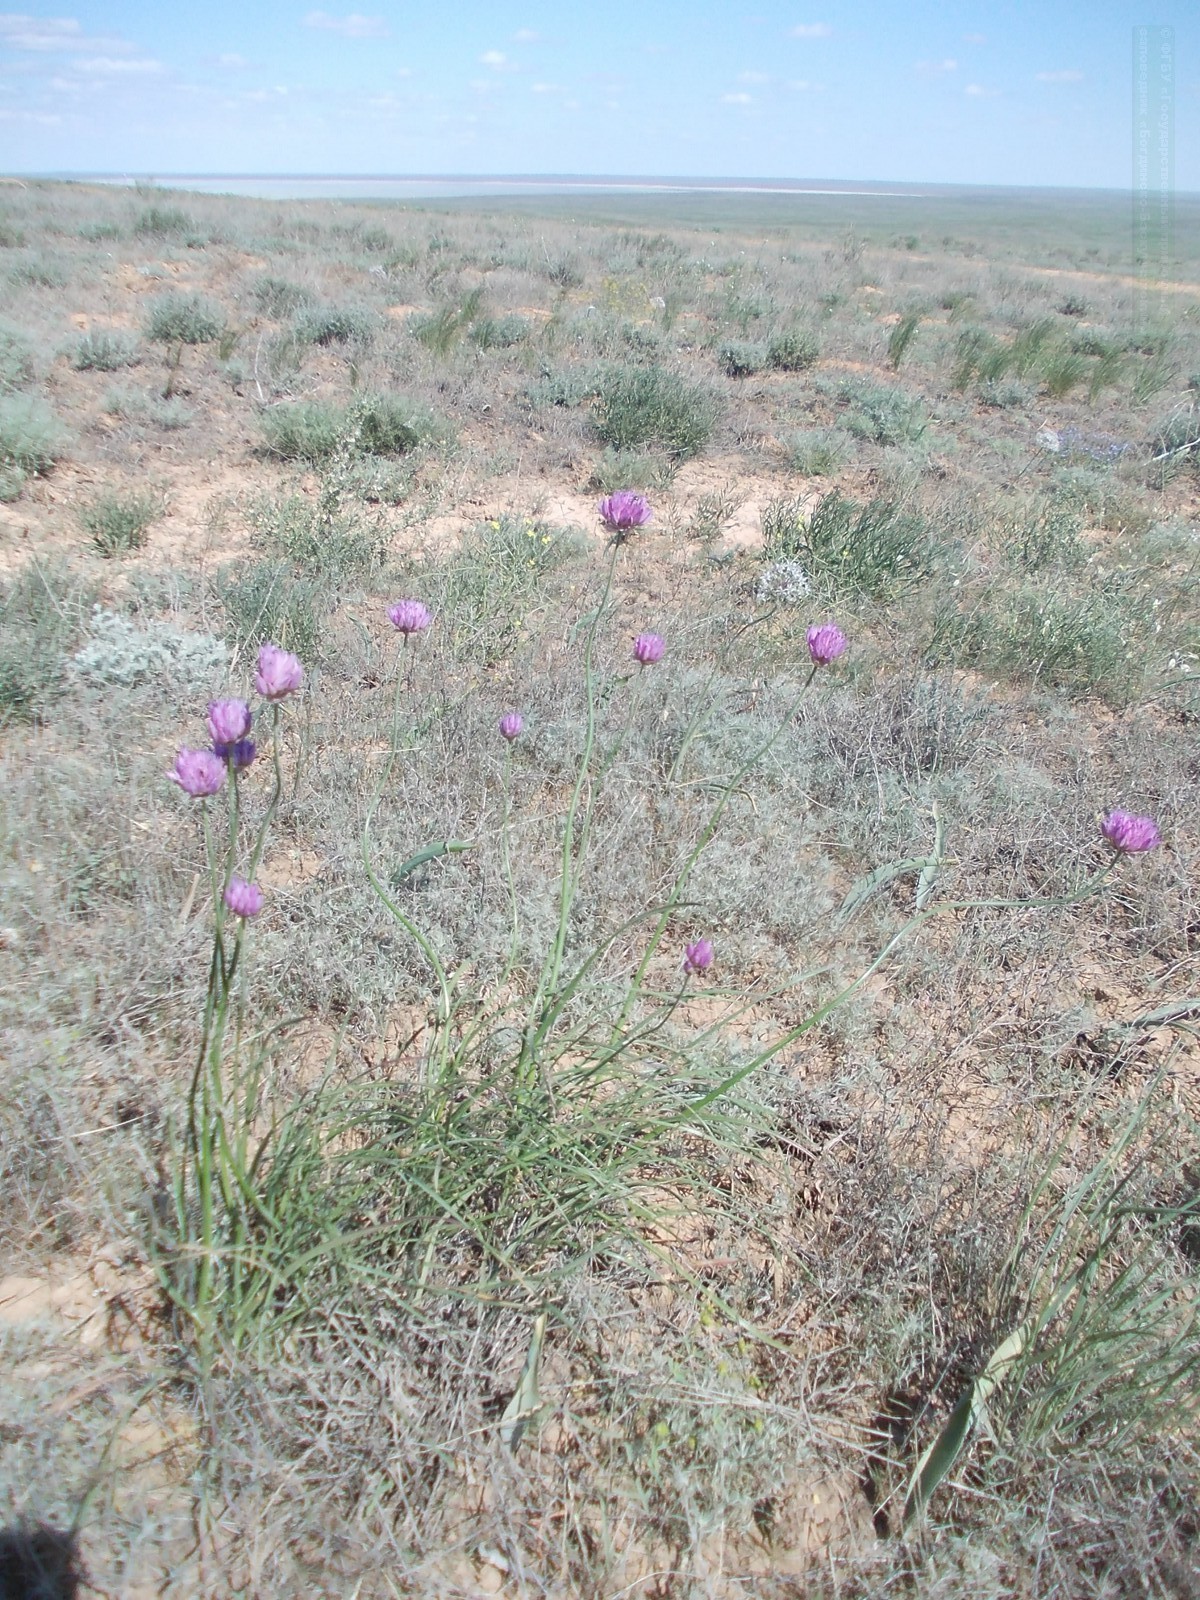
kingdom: Plantae
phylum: Tracheophyta
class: Liliopsida
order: Asparagales
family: Amaryllidaceae
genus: Allium
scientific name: Allium inderiense
